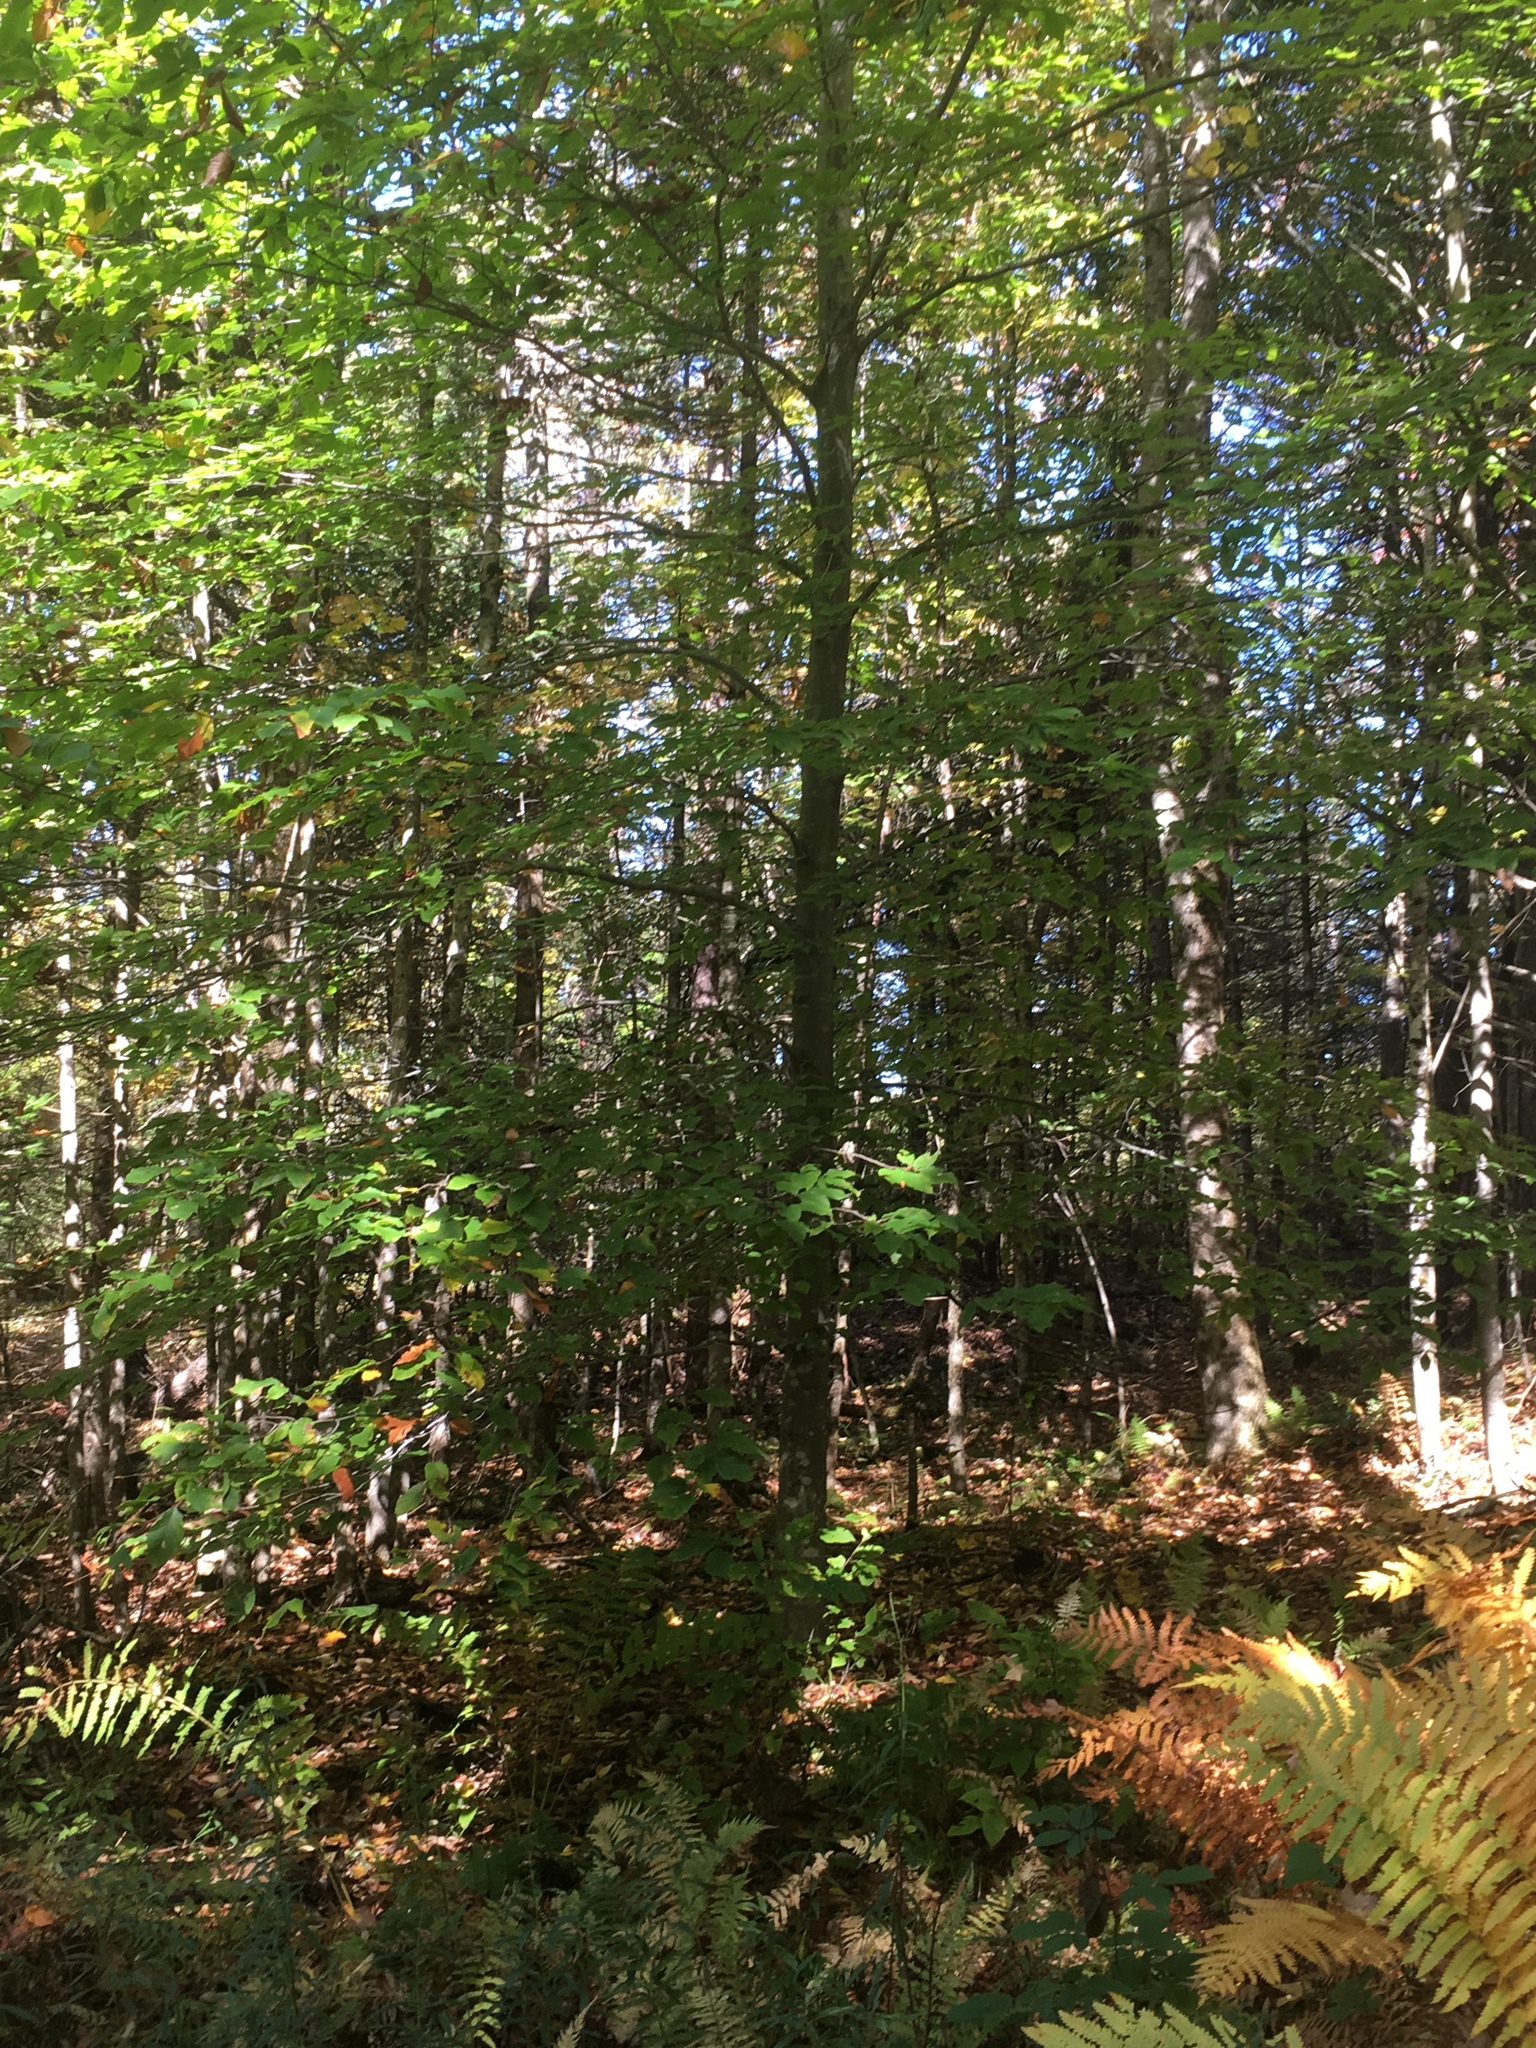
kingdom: Plantae
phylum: Tracheophyta
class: Magnoliopsida
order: Fagales
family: Fagaceae
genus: Fagus
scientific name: Fagus grandifolia
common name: American beech
